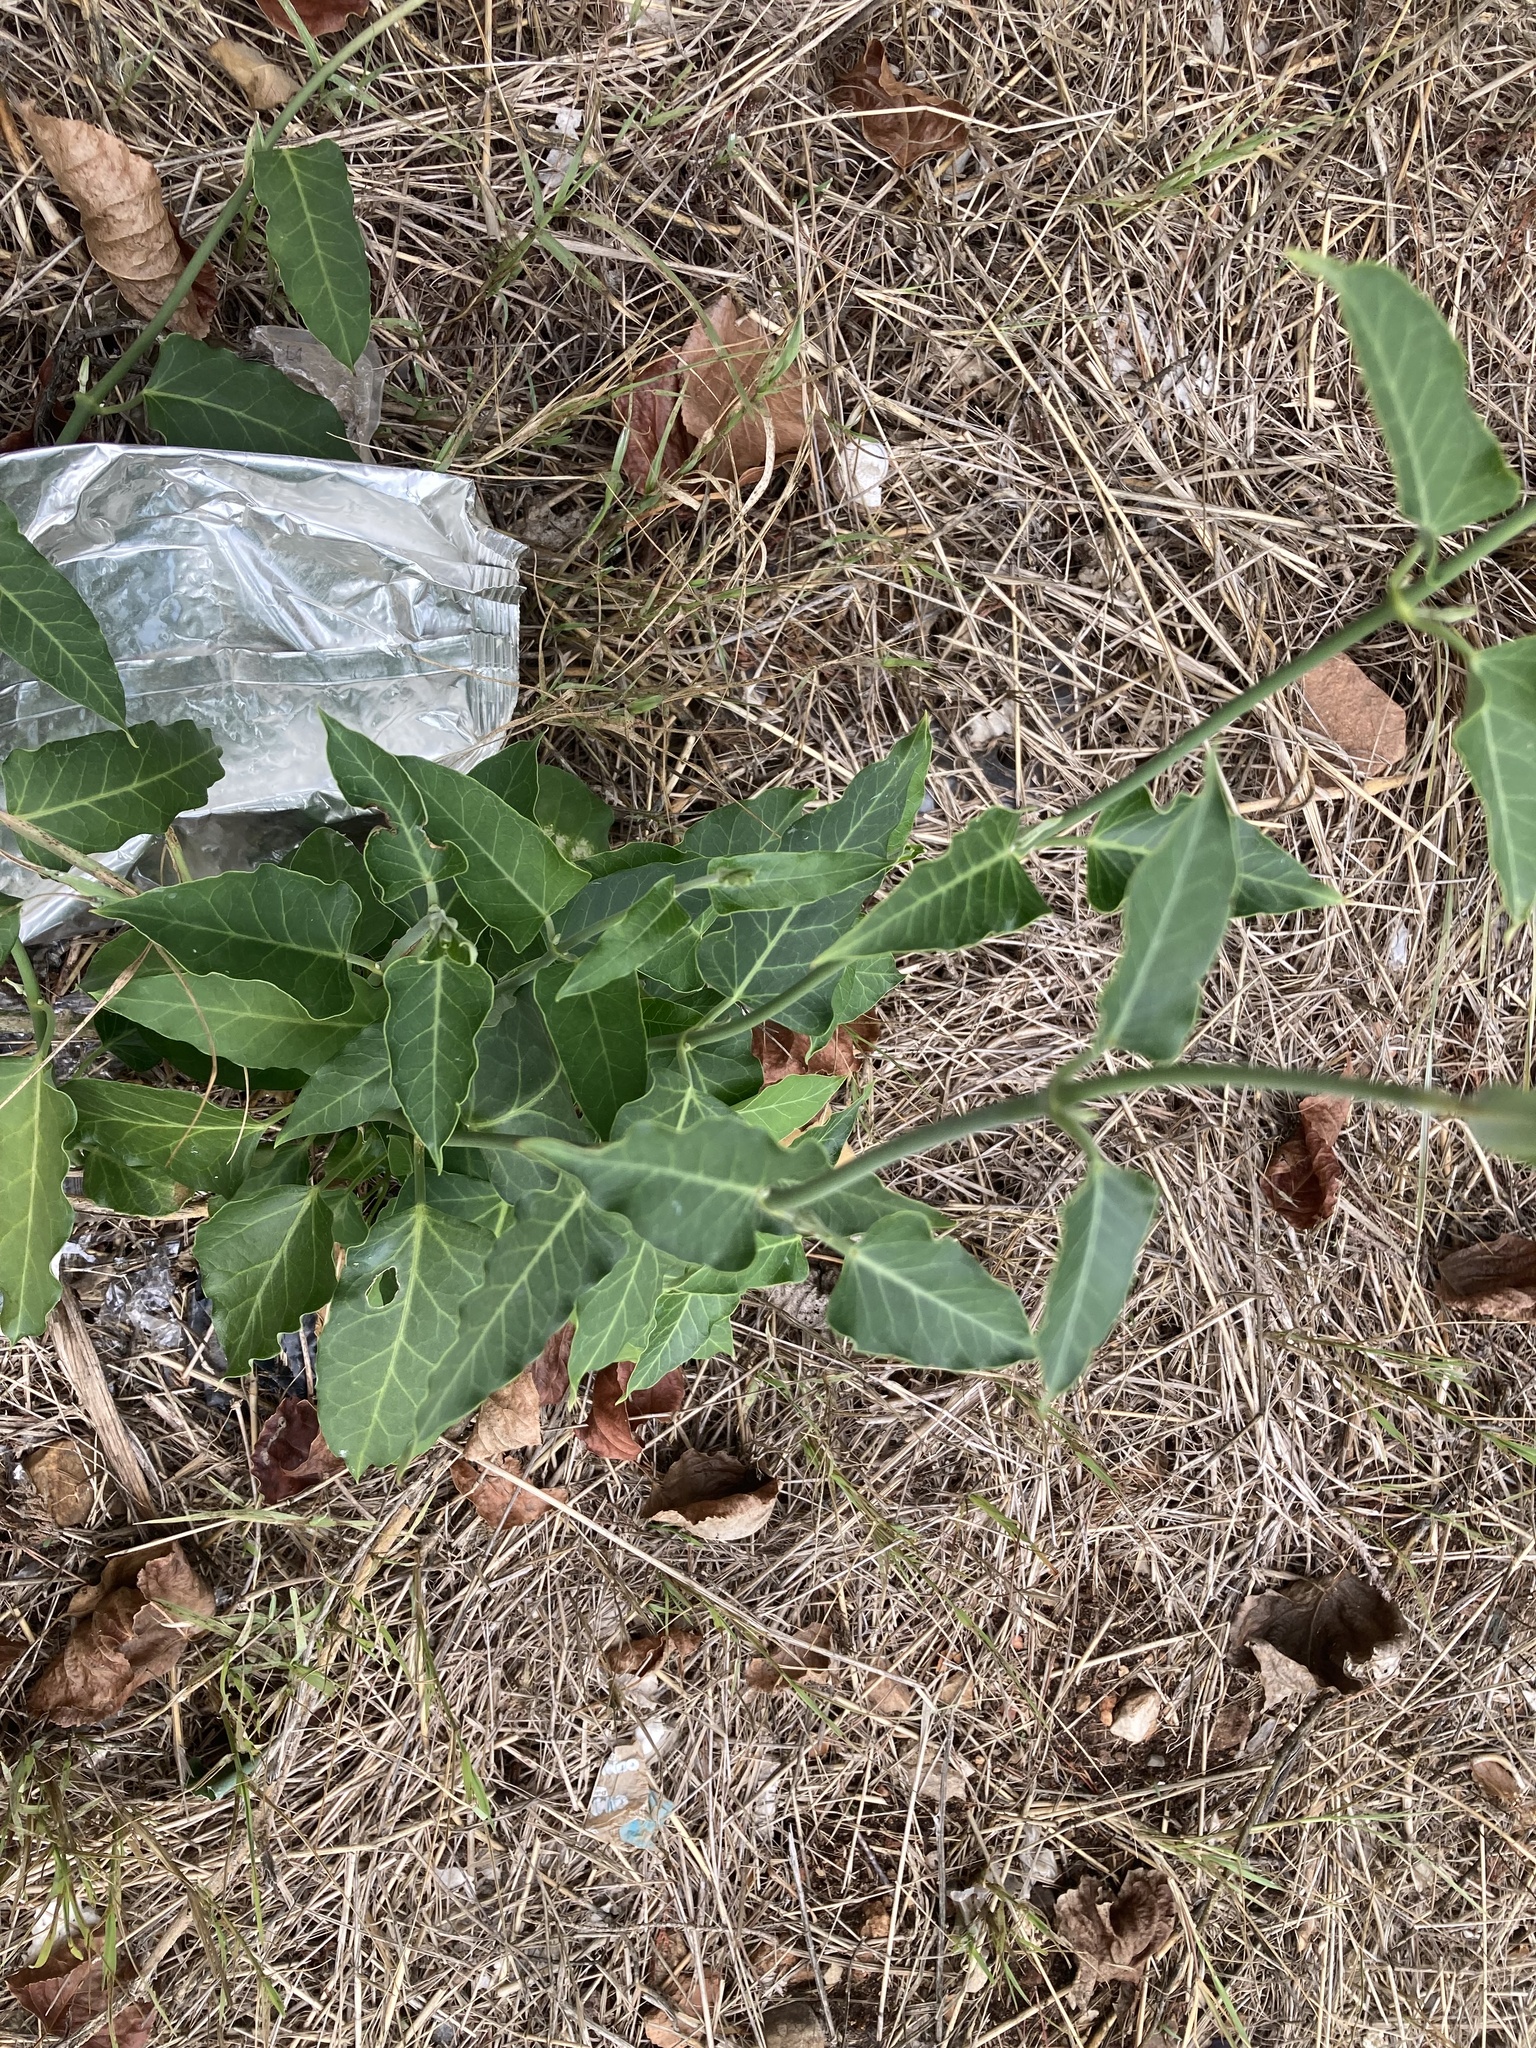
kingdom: Plantae
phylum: Tracheophyta
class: Magnoliopsida
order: Gentianales
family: Apocynaceae
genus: Araujia
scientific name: Araujia sericifera
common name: White bladderflower
